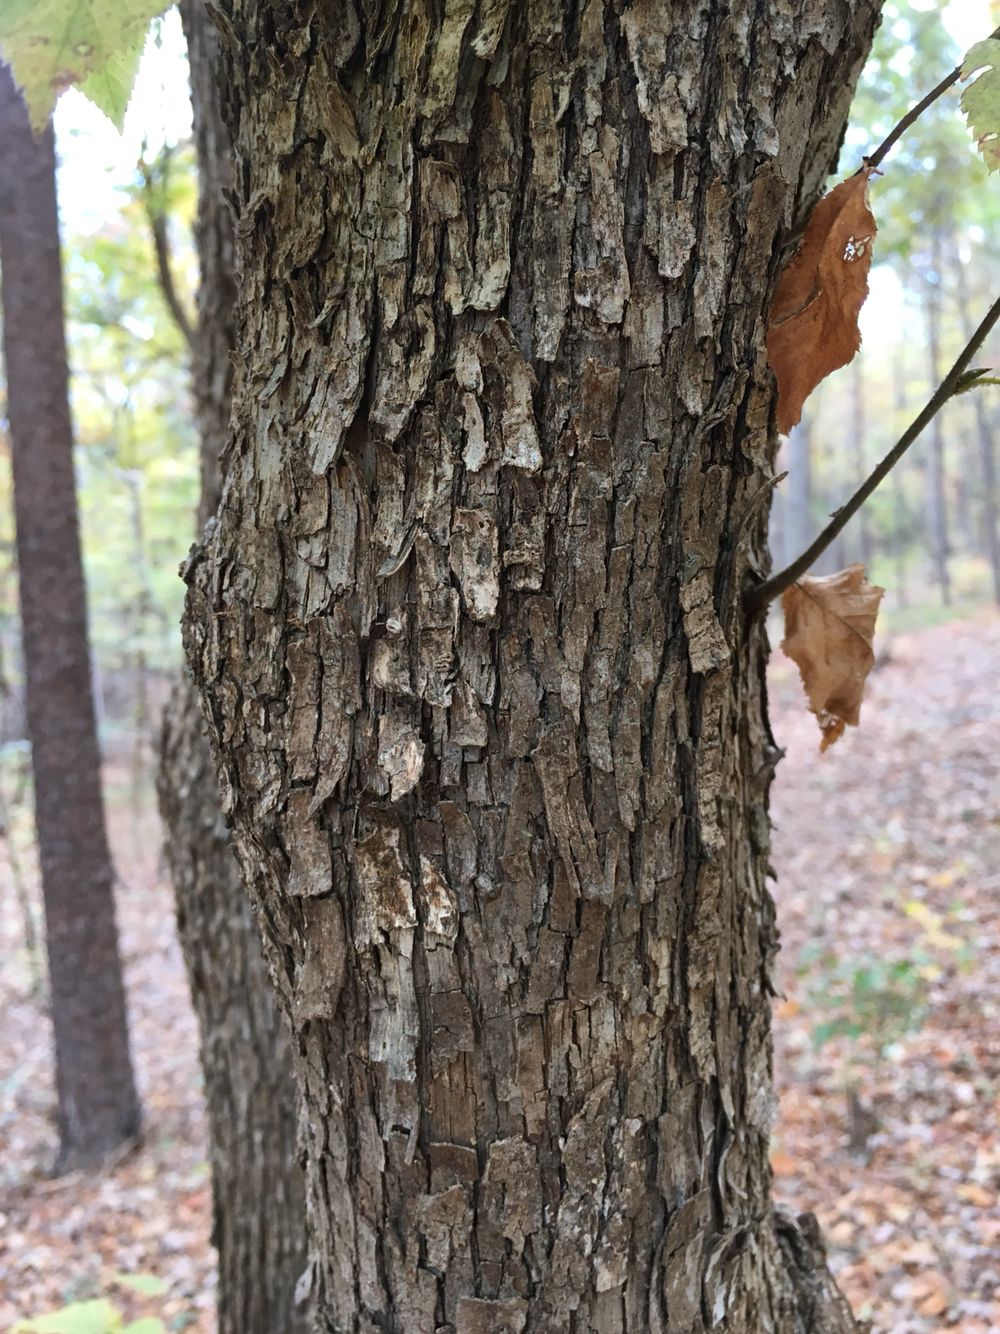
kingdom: Plantae
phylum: Tracheophyta
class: Magnoliopsida
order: Fagales
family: Betulaceae
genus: Ostrya
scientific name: Ostrya virginiana
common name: Ironwood
